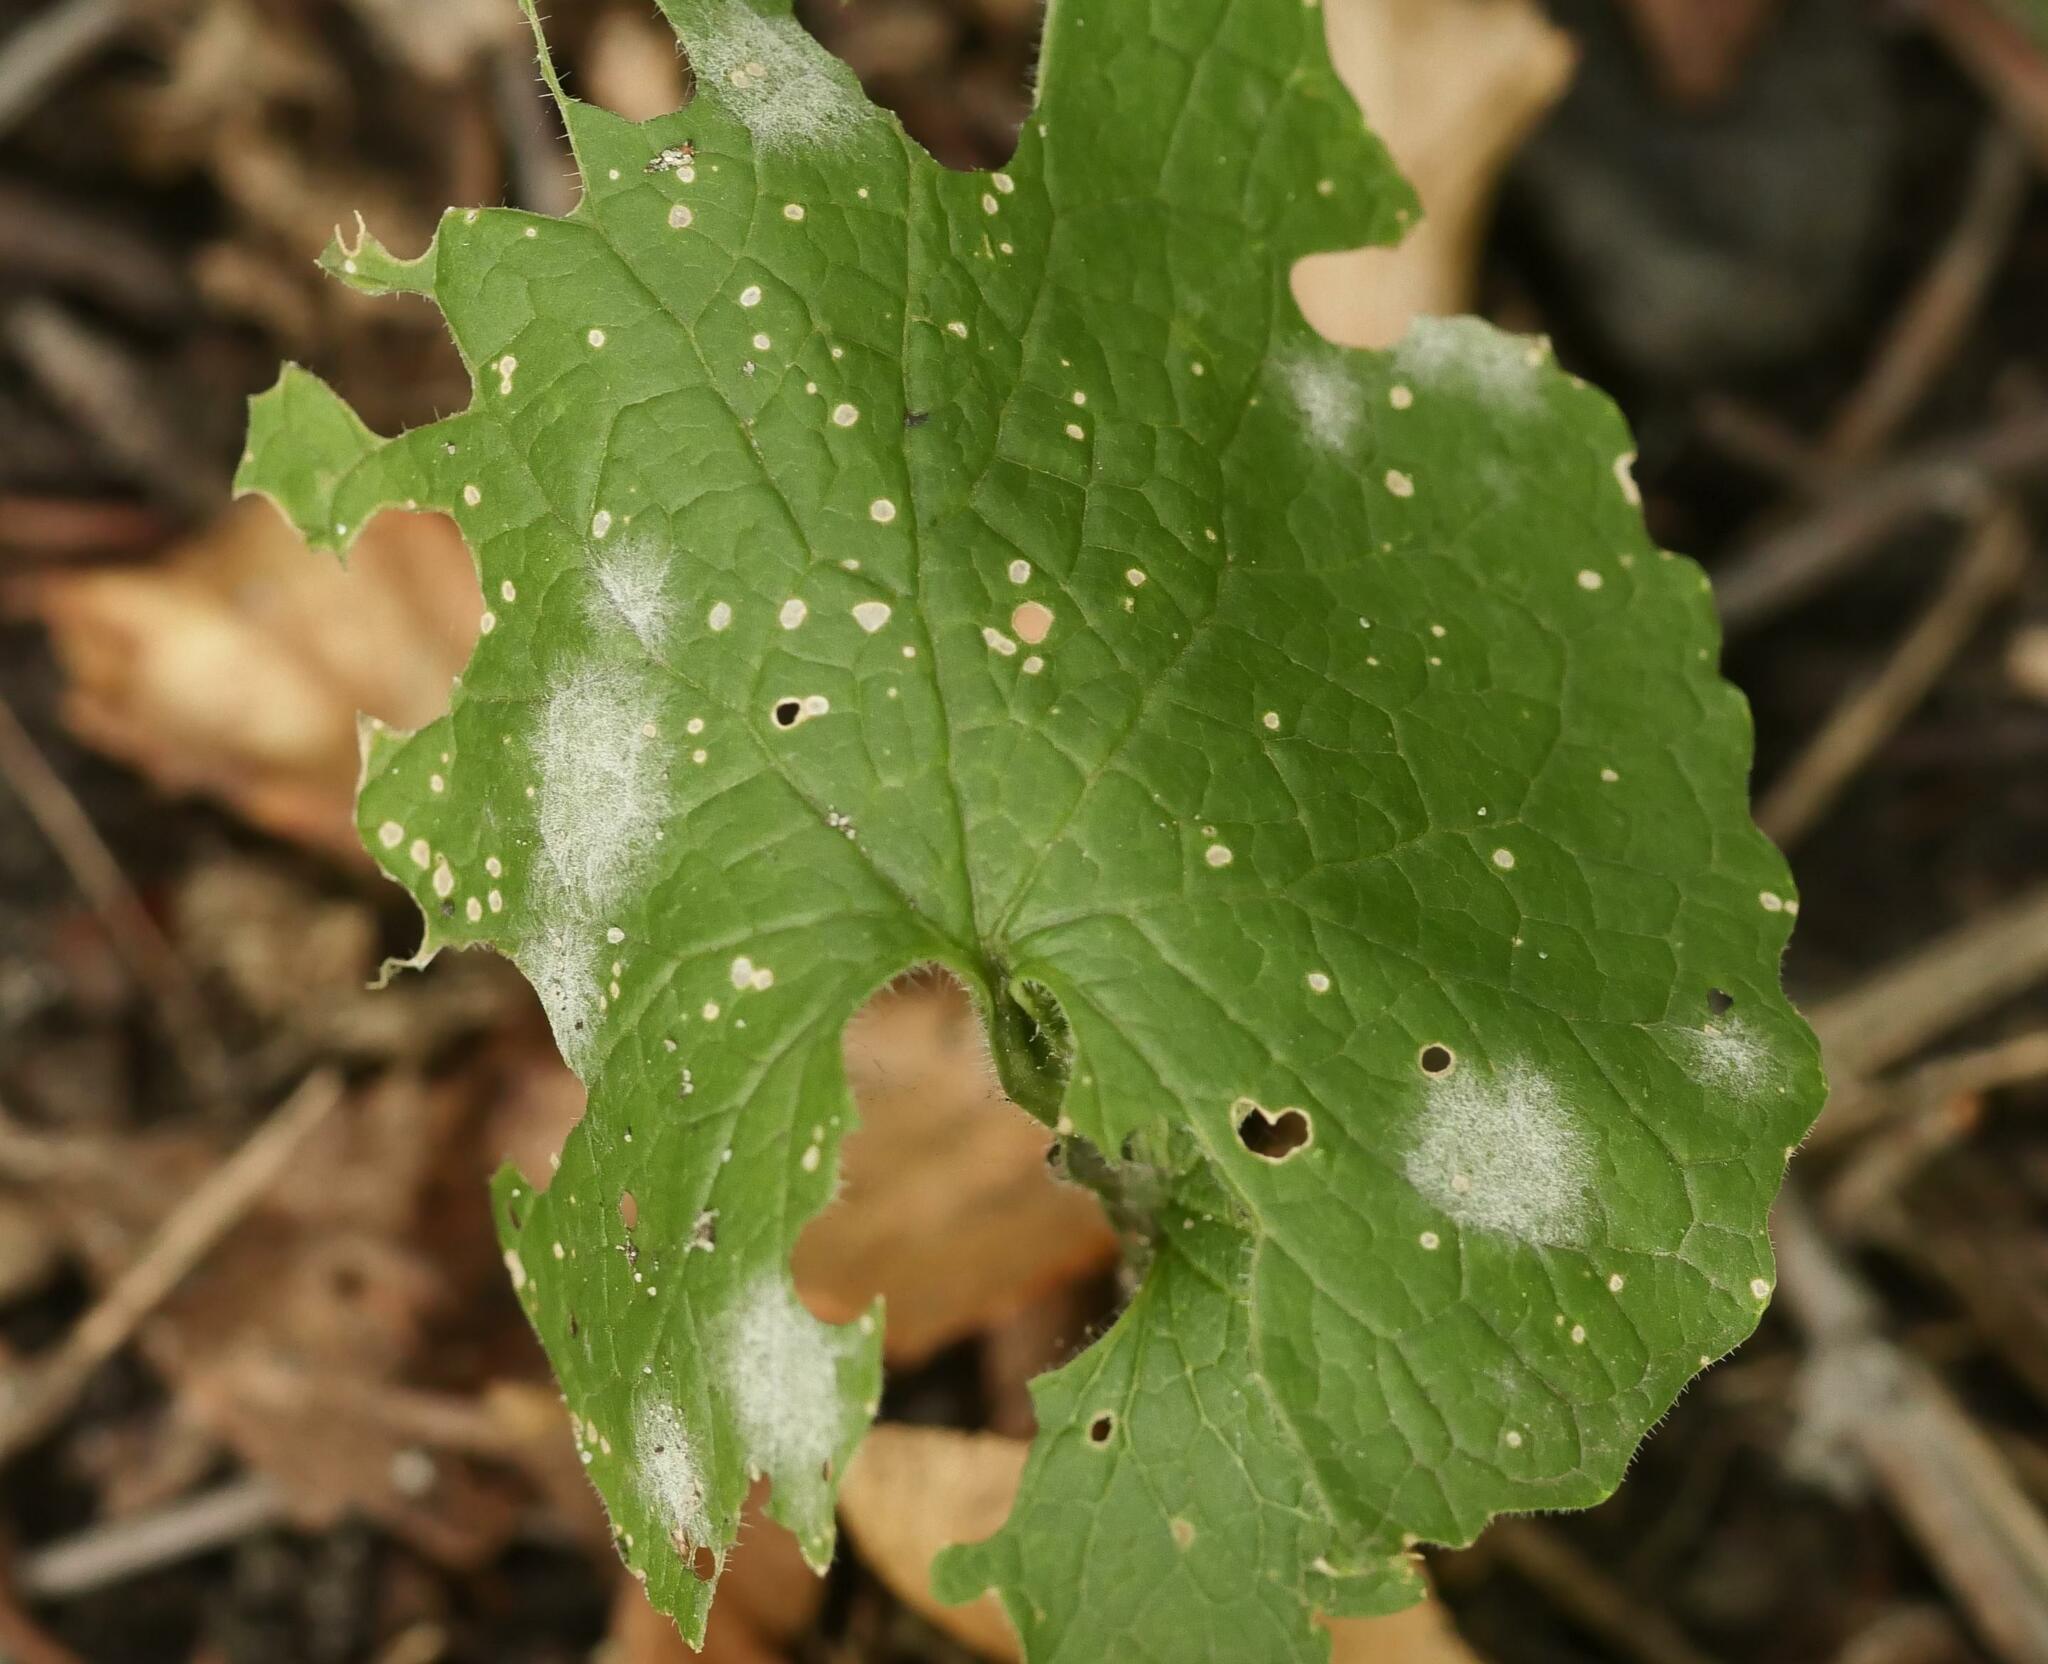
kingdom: Fungi
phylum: Ascomycota
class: Leotiomycetes
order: Helotiales
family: Erysiphaceae
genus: Erysiphe
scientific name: Erysiphe cruciferarum
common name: Brassica powdery mildew
